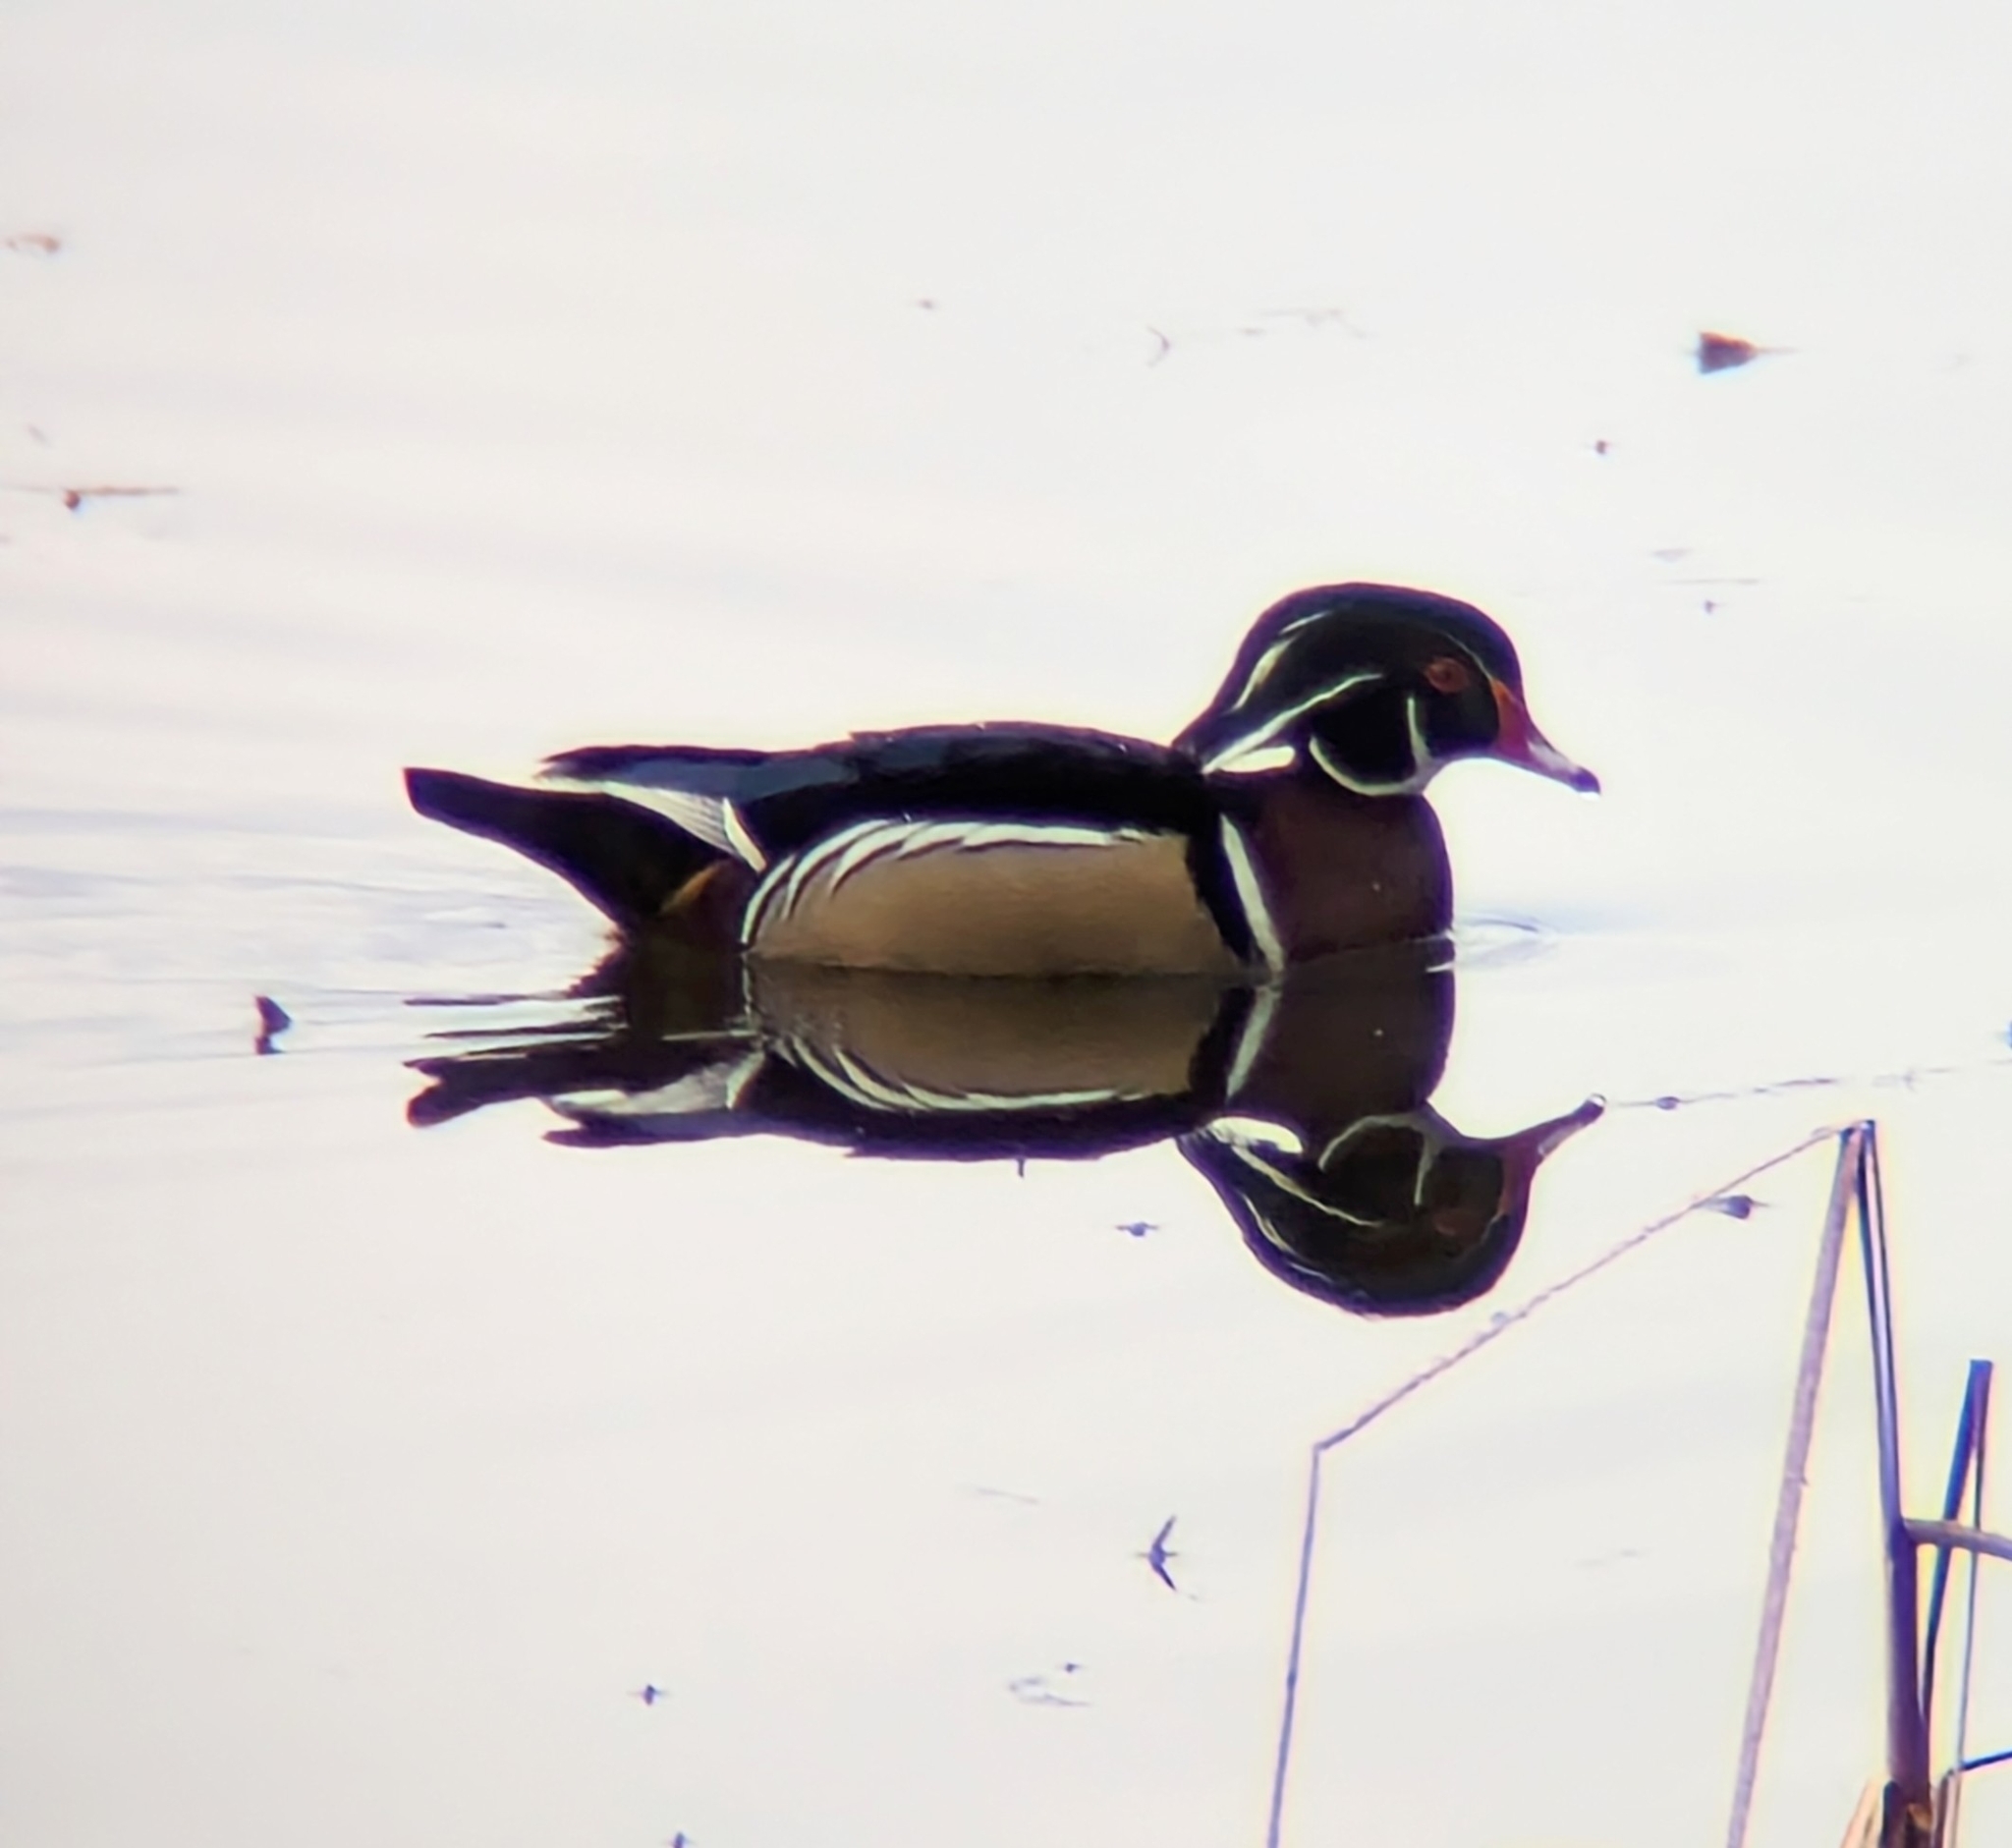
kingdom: Animalia
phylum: Chordata
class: Aves
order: Anseriformes
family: Anatidae
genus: Aix
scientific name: Aix sponsa
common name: Wood duck
